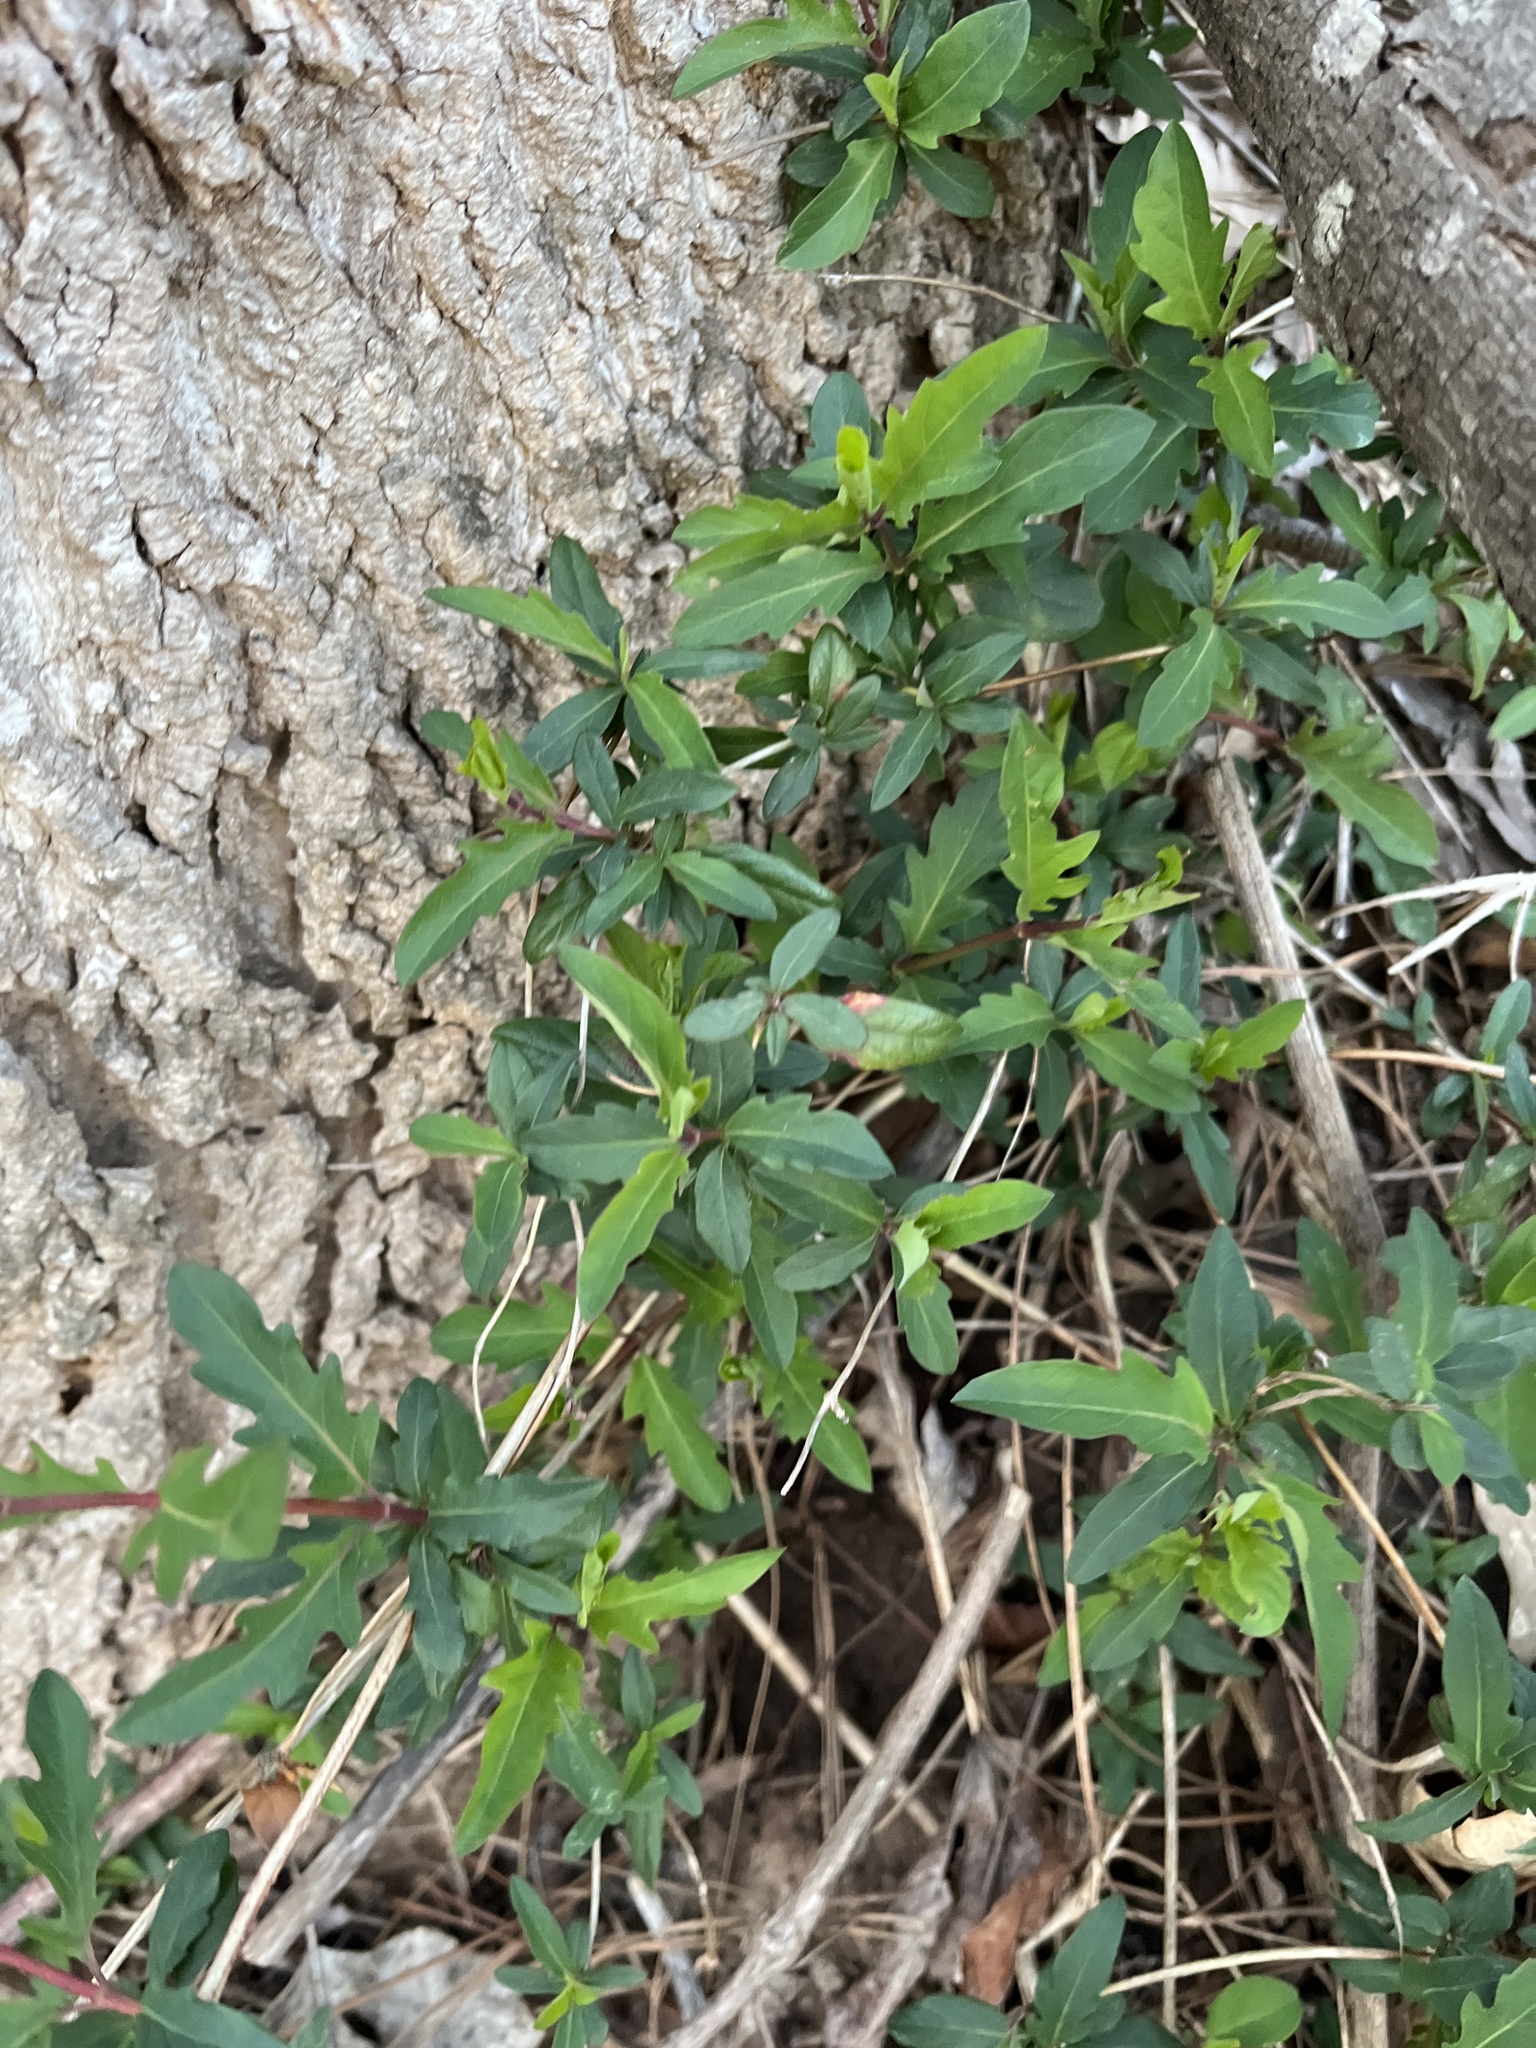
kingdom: Plantae
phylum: Tracheophyta
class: Magnoliopsida
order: Dipsacales
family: Caprifoliaceae
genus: Lonicera
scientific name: Lonicera japonica
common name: Japanese honeysuckle
